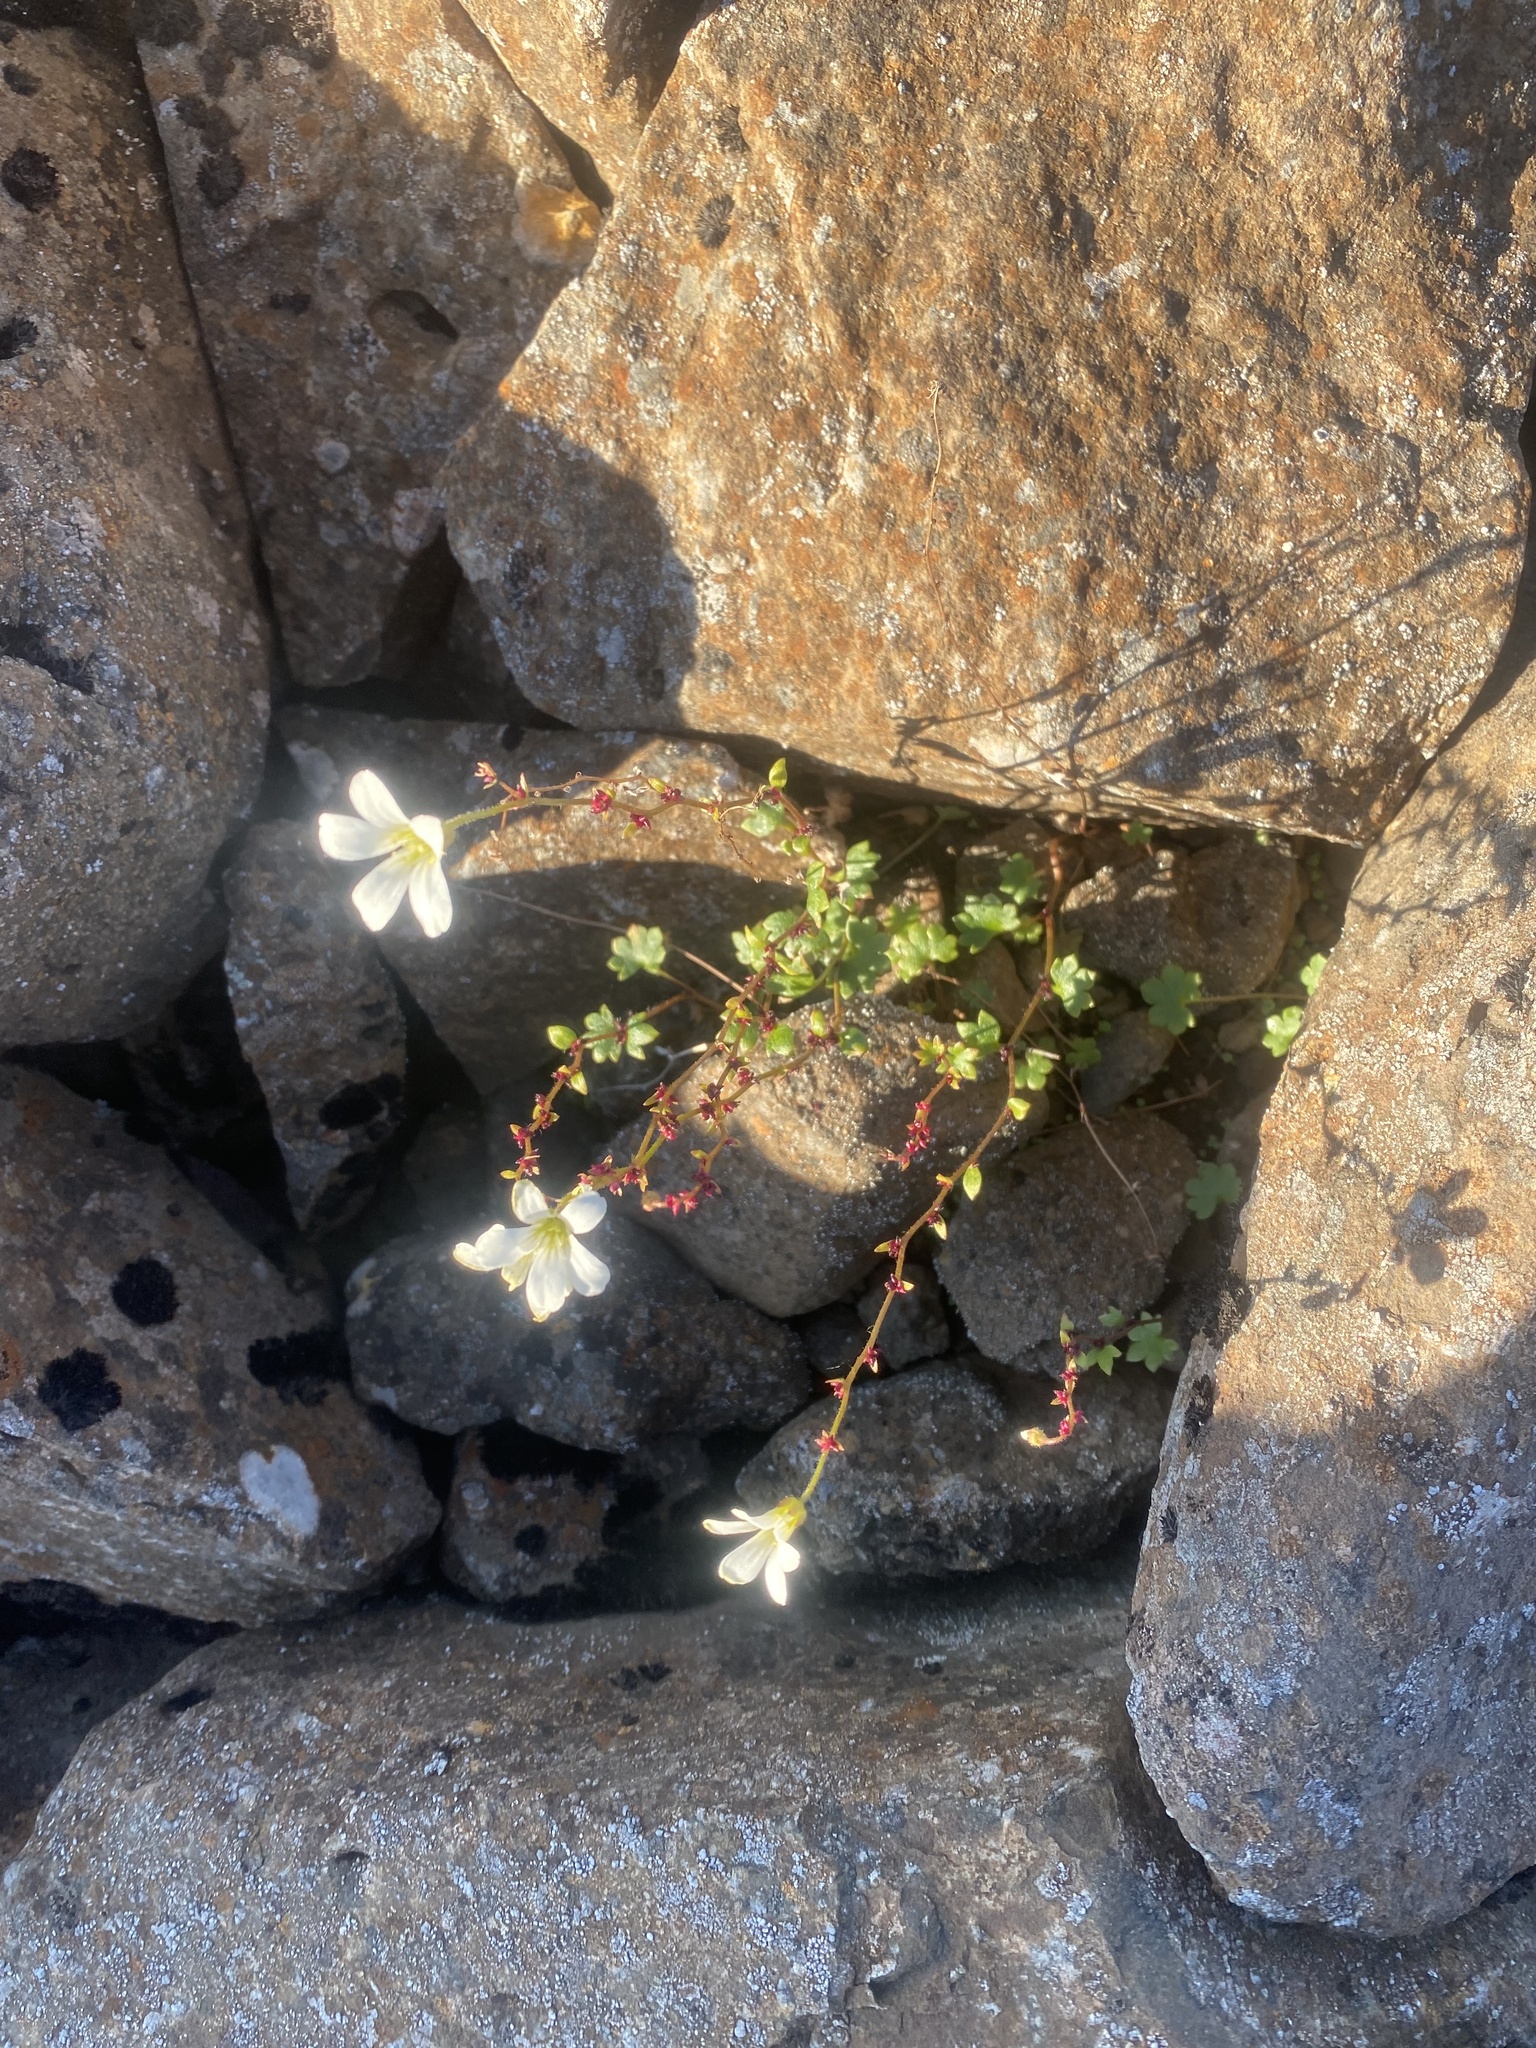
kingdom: Plantae
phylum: Tracheophyta
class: Magnoliopsida
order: Saxifragales
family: Saxifragaceae
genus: Saxifraga
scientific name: Saxifraga cernua
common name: Drooping saxifrage
